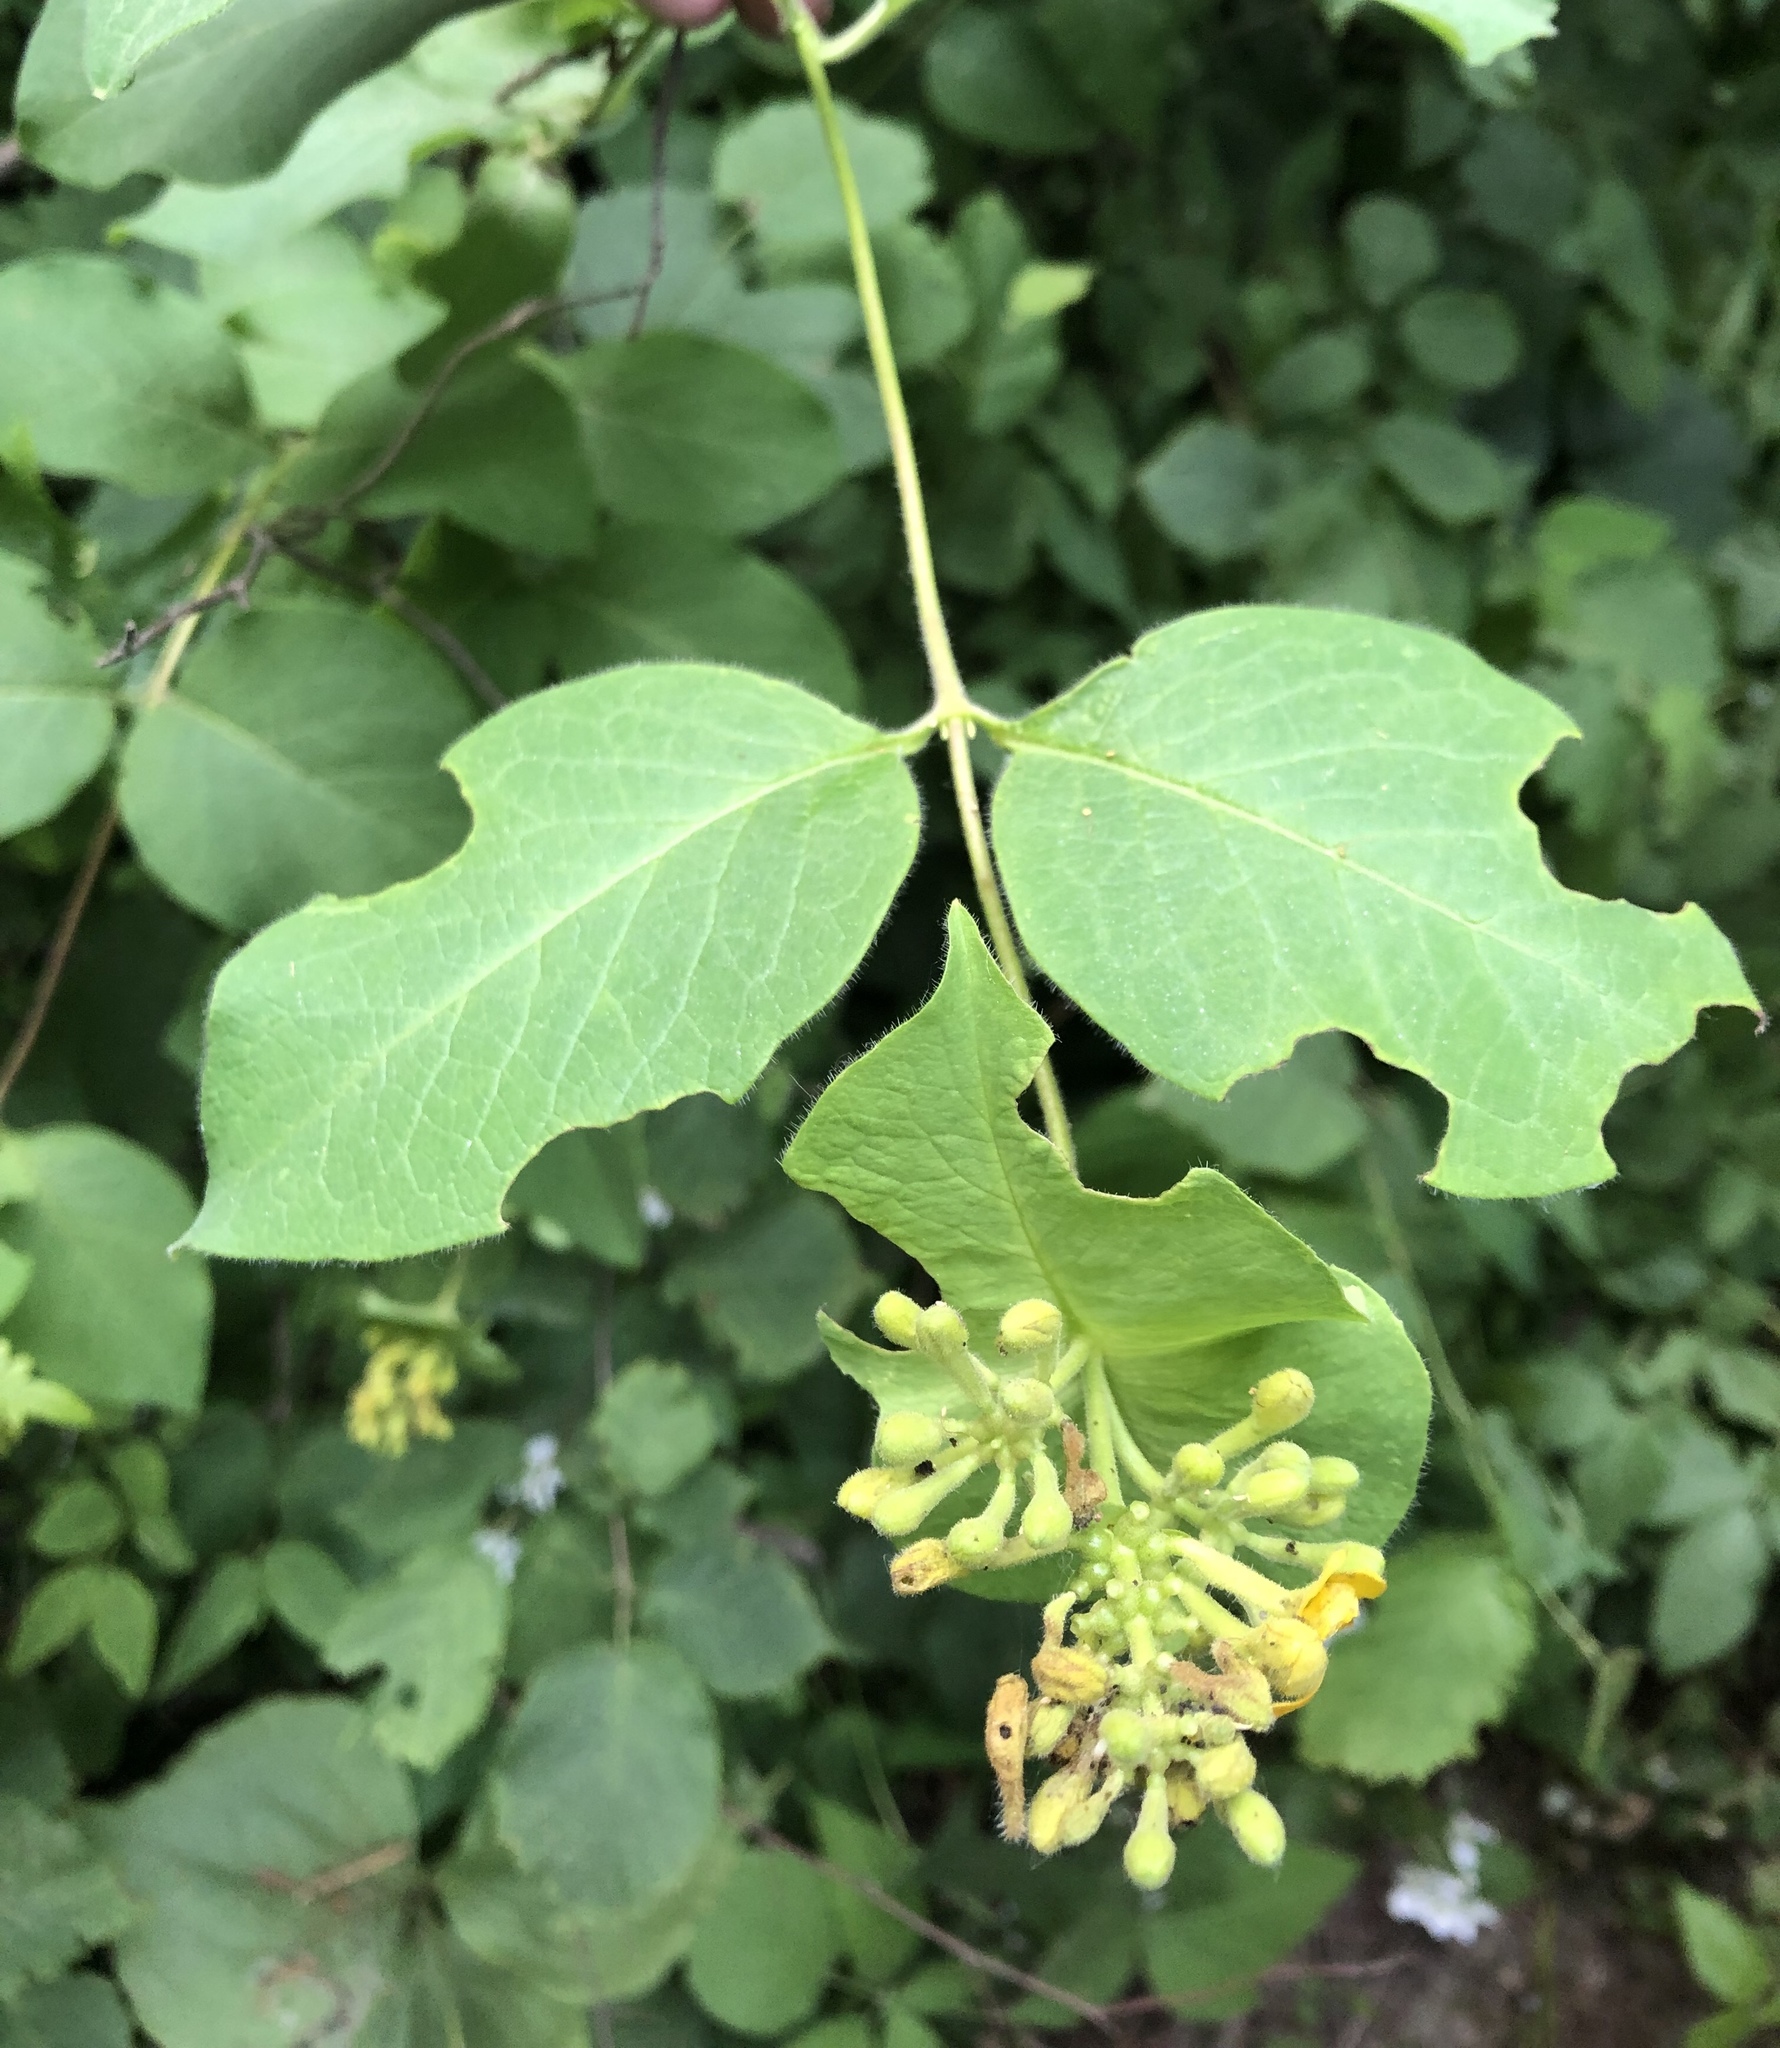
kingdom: Plantae
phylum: Tracheophyta
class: Magnoliopsida
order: Dipsacales
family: Caprifoliaceae
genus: Lonicera
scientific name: Lonicera hirsuta
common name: Hairy honeysuckle
